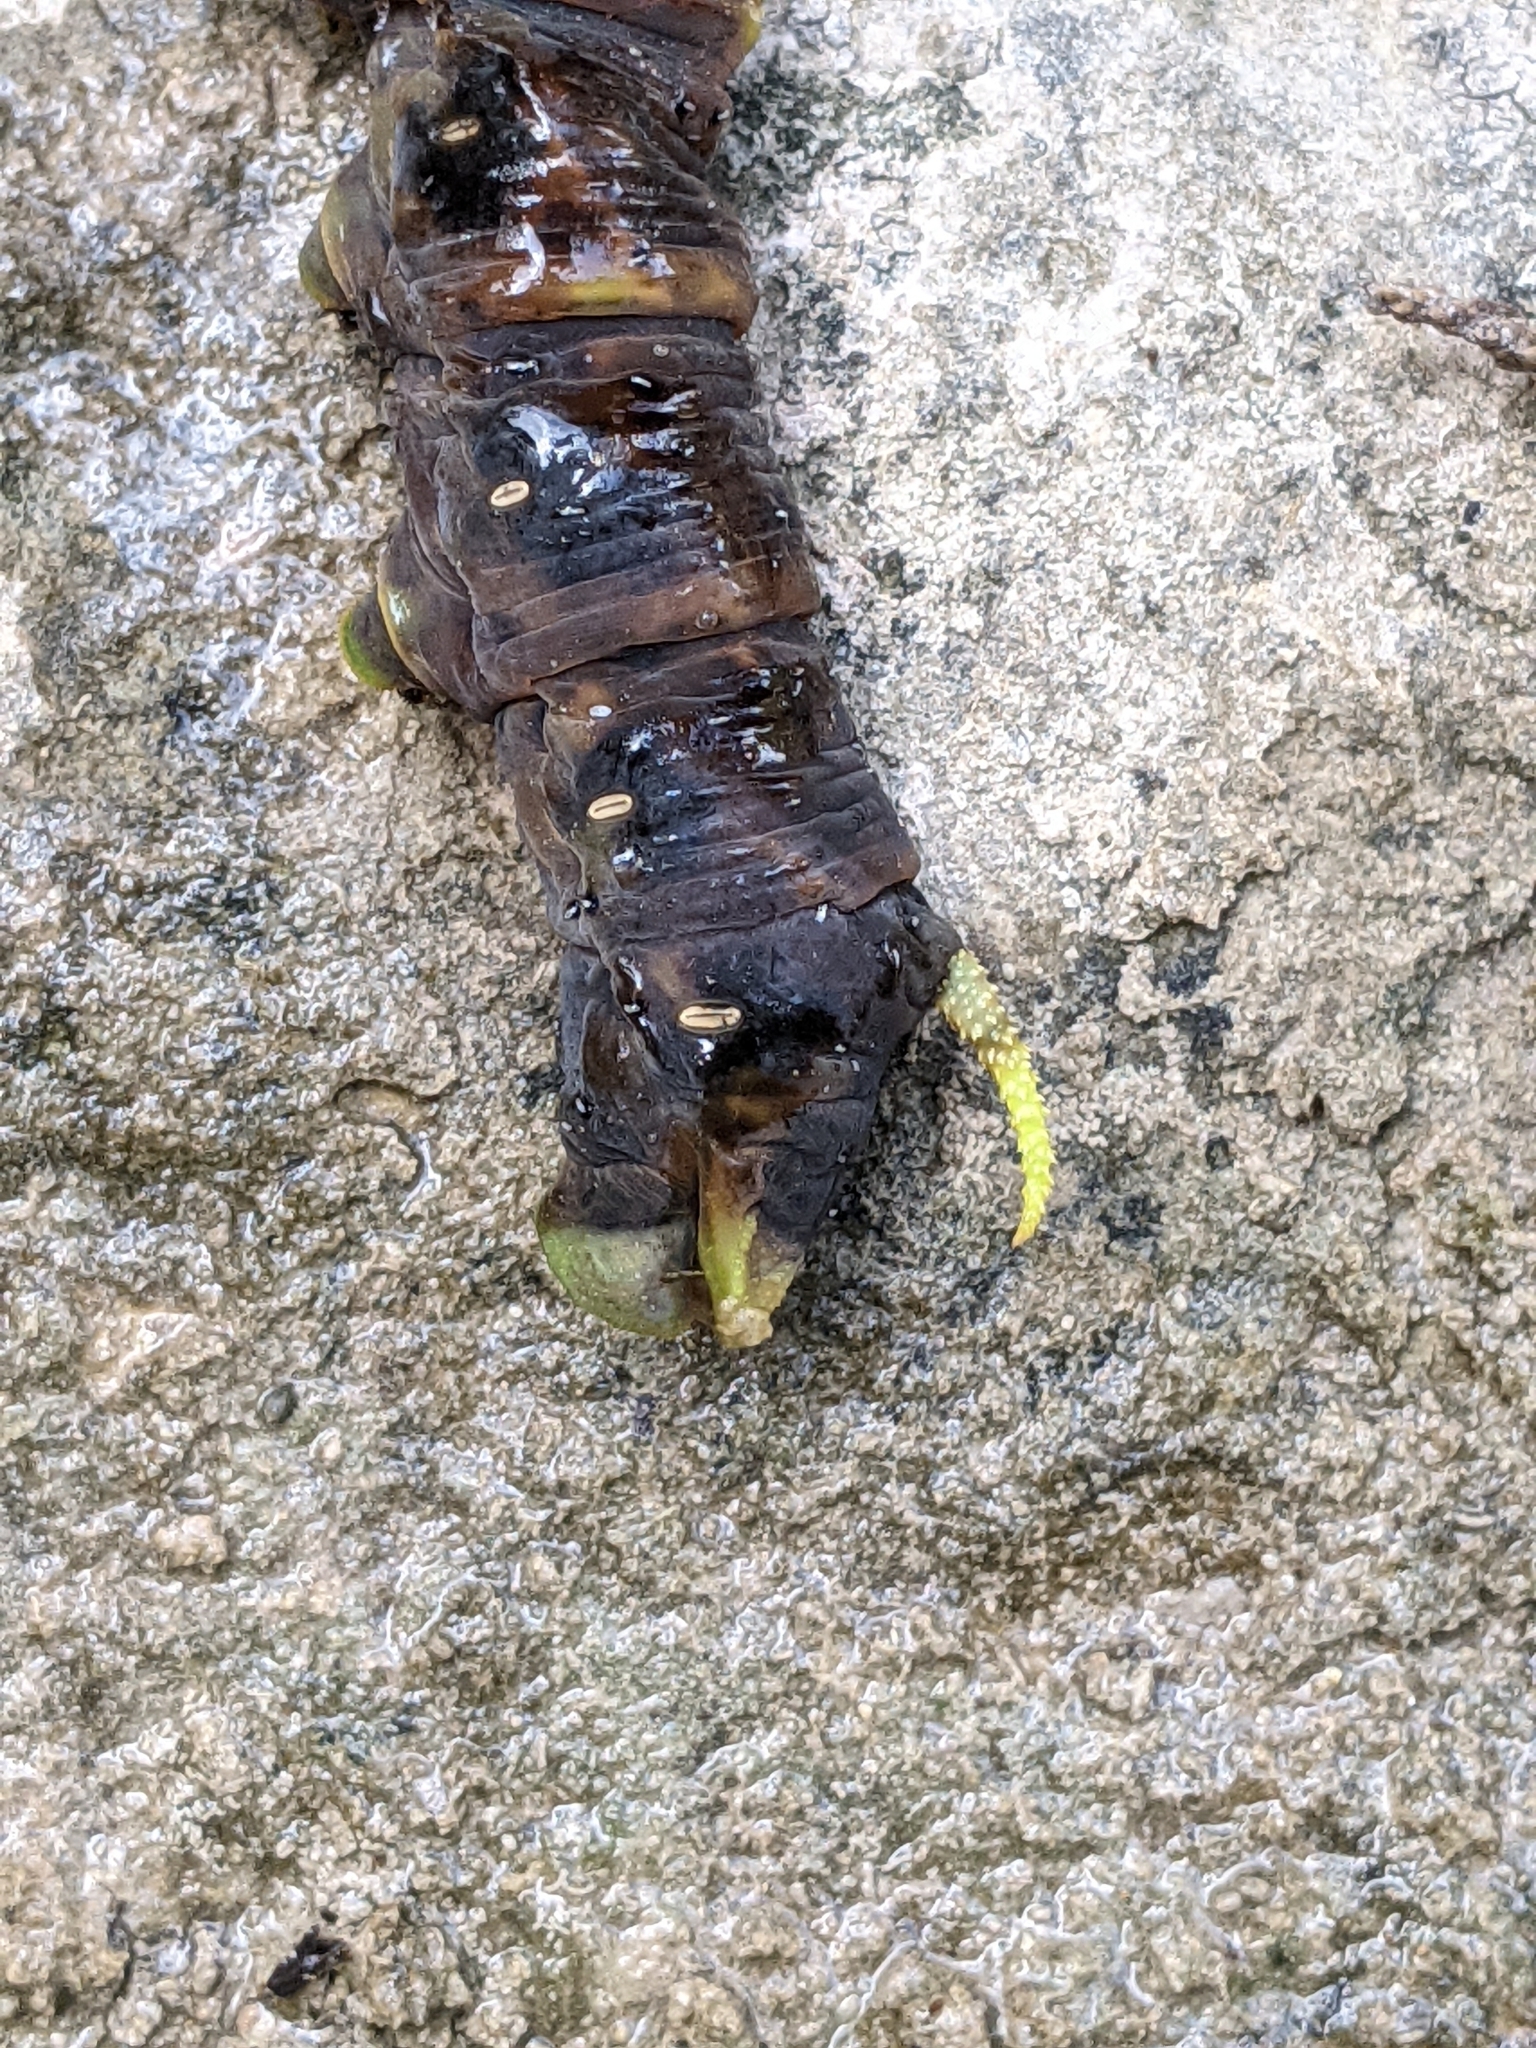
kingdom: Animalia
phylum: Arthropoda
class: Insecta
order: Lepidoptera
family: Sphingidae
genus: Manduca
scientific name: Manduca rustica
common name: Rustic sphinx
